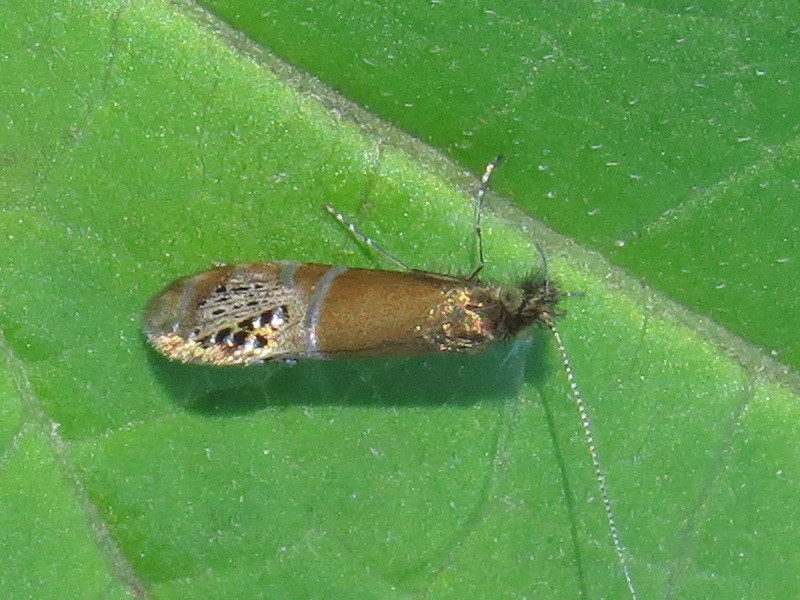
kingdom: Animalia
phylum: Arthropoda
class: Insecta
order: Lepidoptera
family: Adelidae
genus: Adela
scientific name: Adela ridingsella
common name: Ridings' fairy moth
